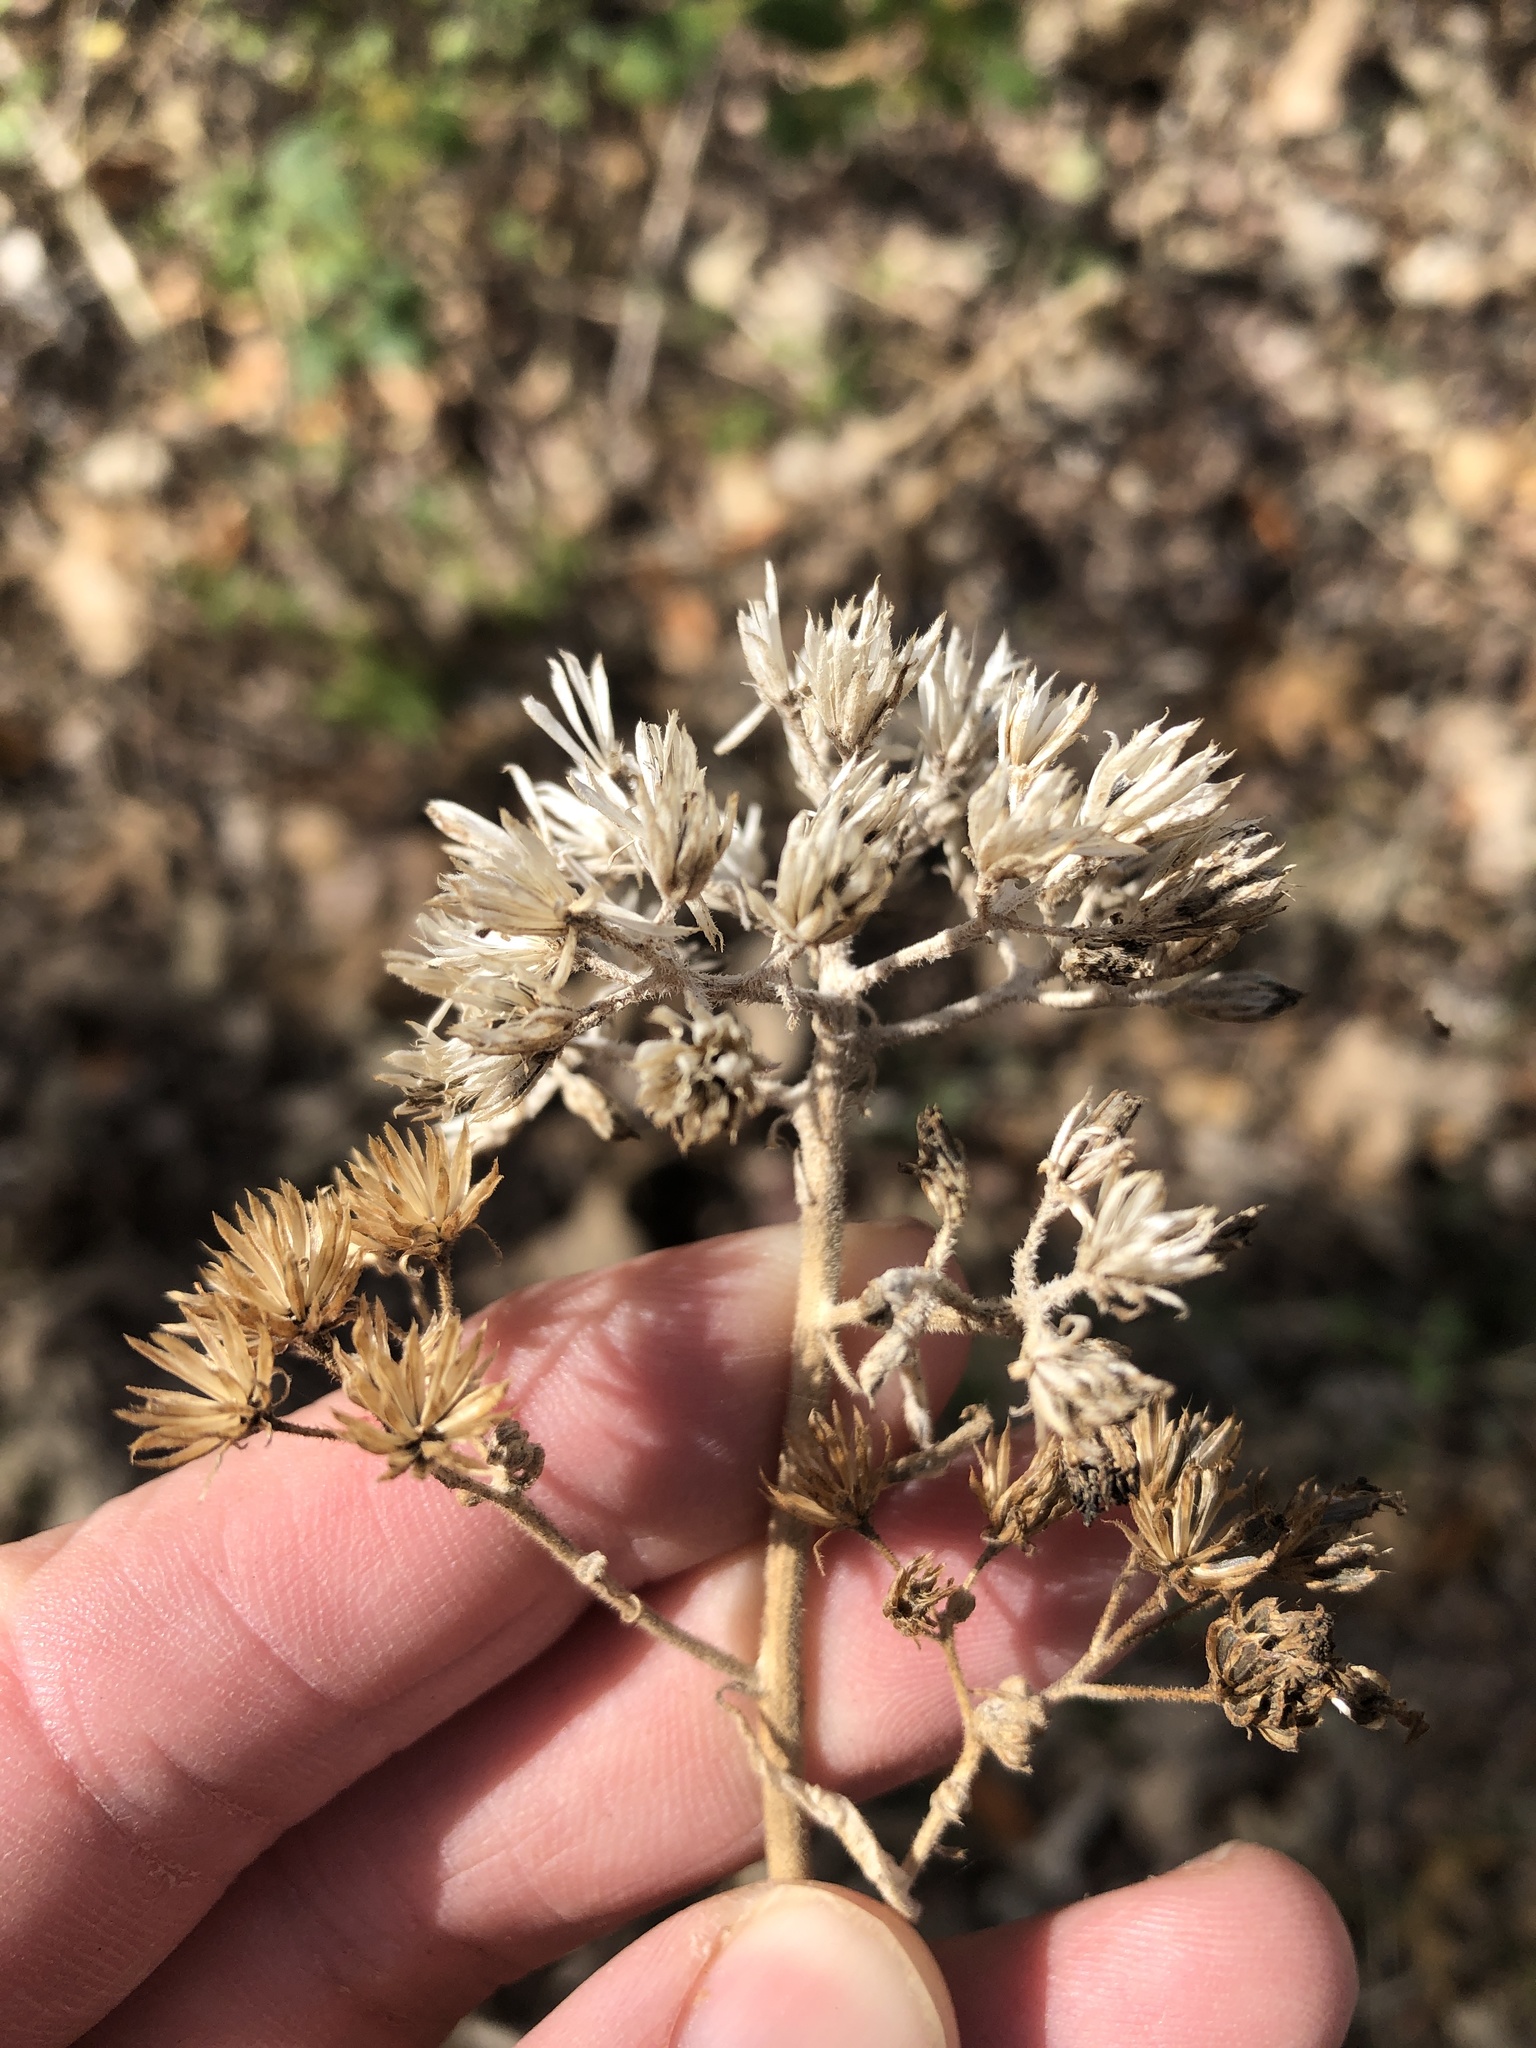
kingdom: Plantae
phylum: Tracheophyta
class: Magnoliopsida
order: Asterales
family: Asteraceae
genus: Verbesina
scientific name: Verbesina virginica
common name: Frostweed
